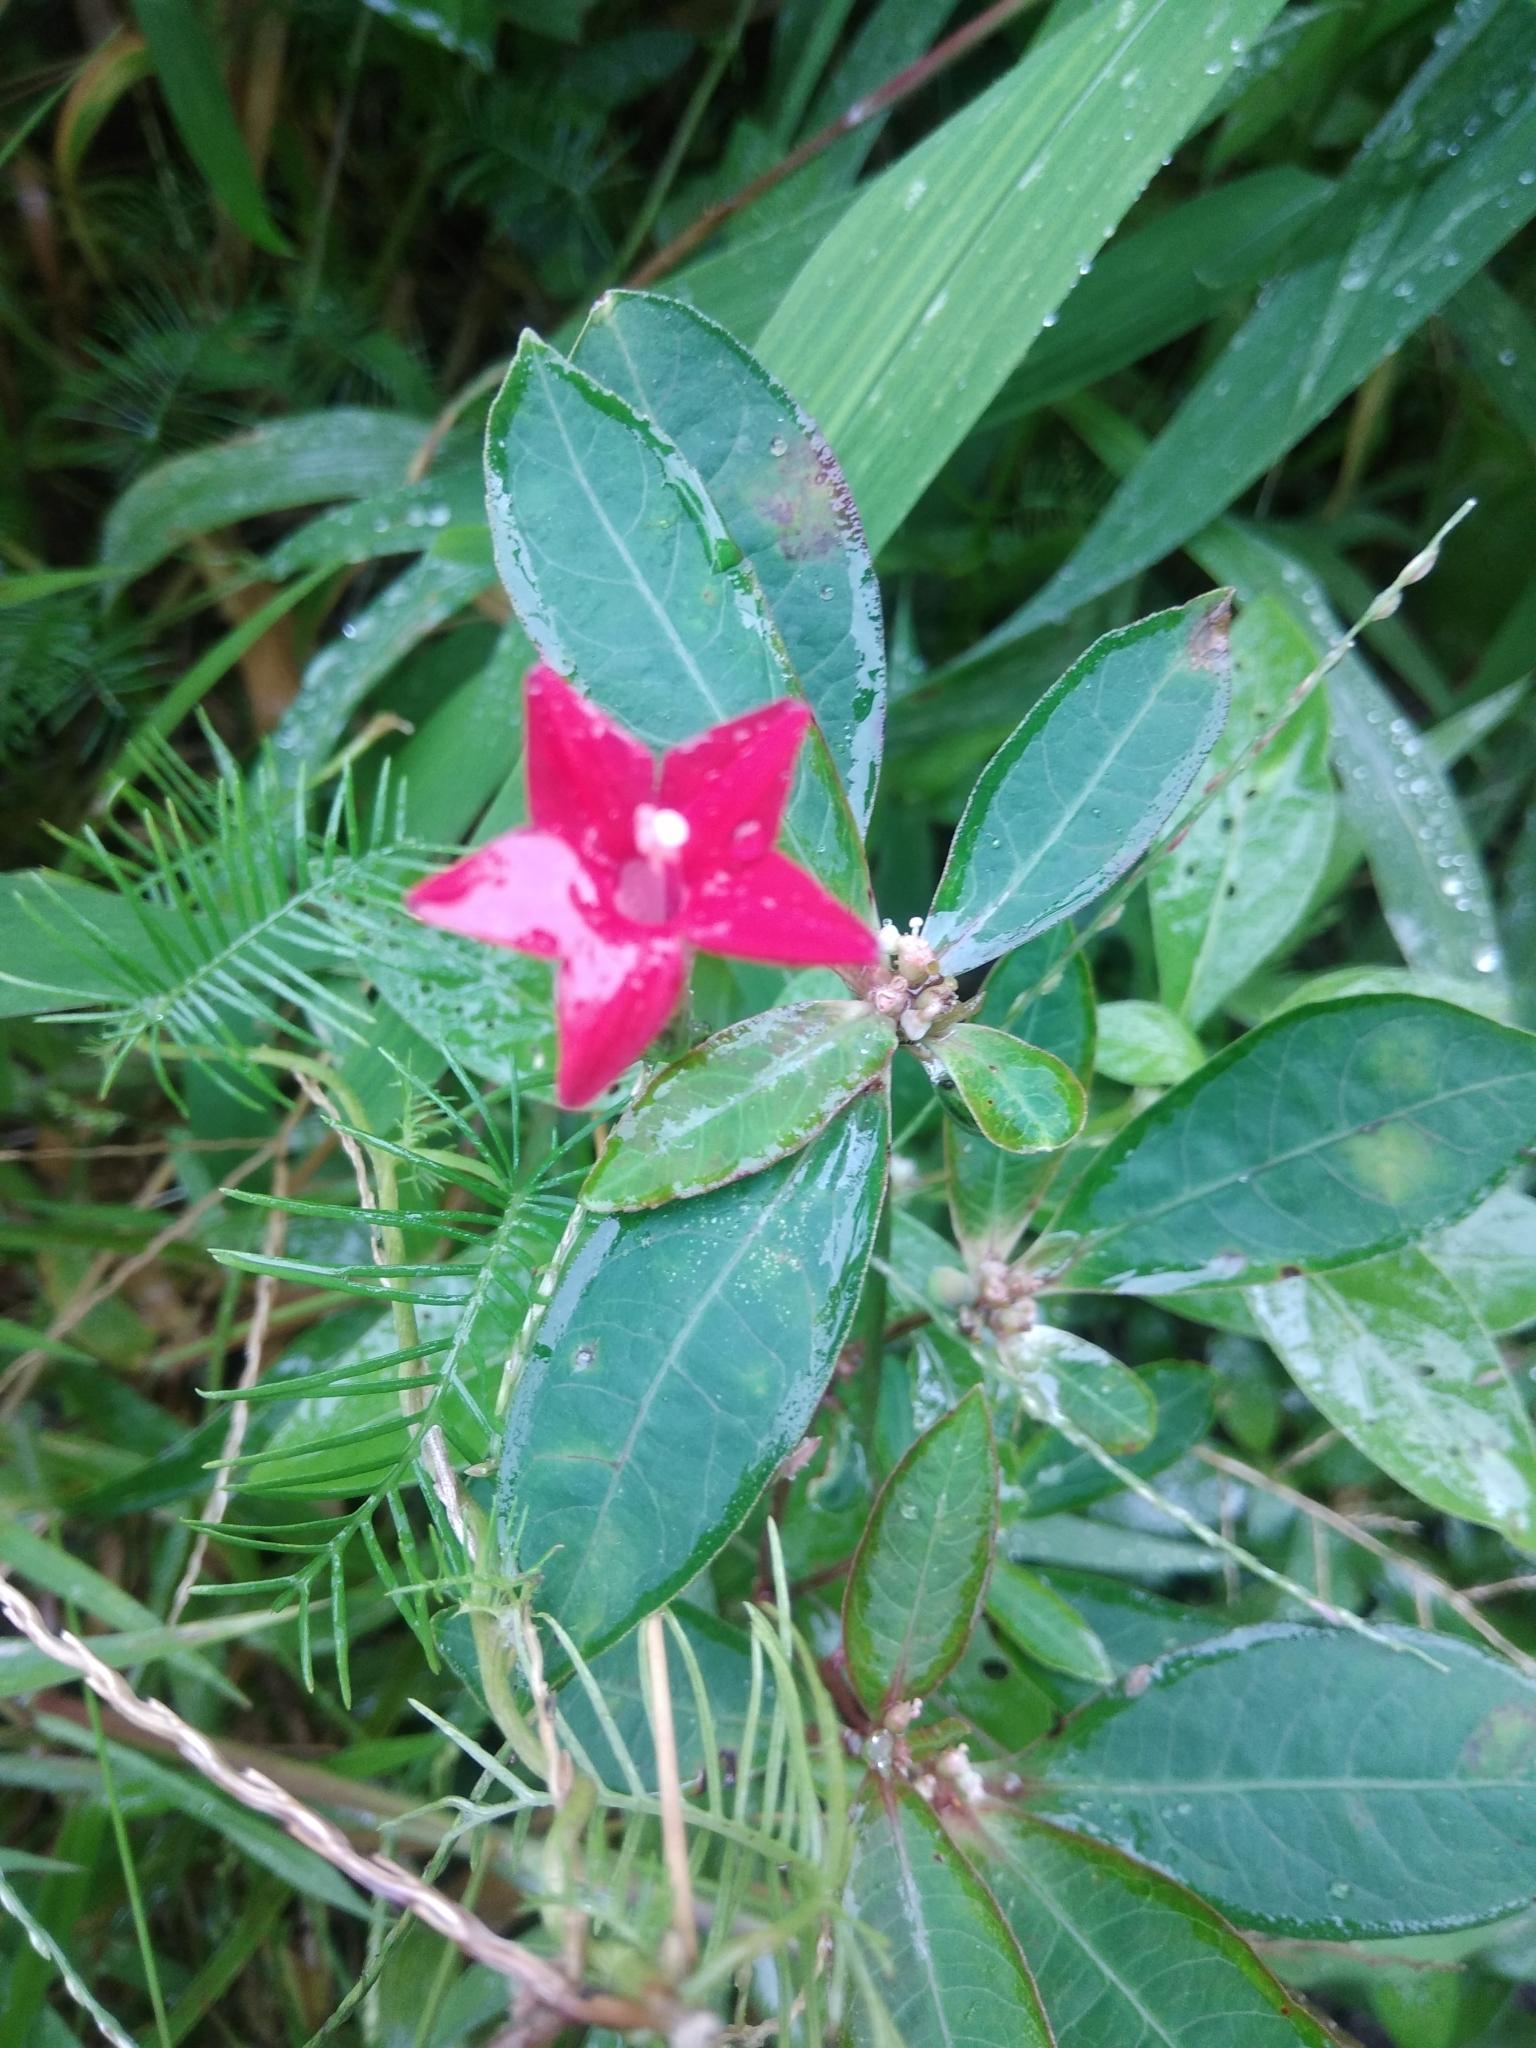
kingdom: Plantae
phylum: Tracheophyta
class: Magnoliopsida
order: Solanales
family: Convolvulaceae
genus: Ipomoea
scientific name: Ipomoea quamoclit
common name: Cypress vine
